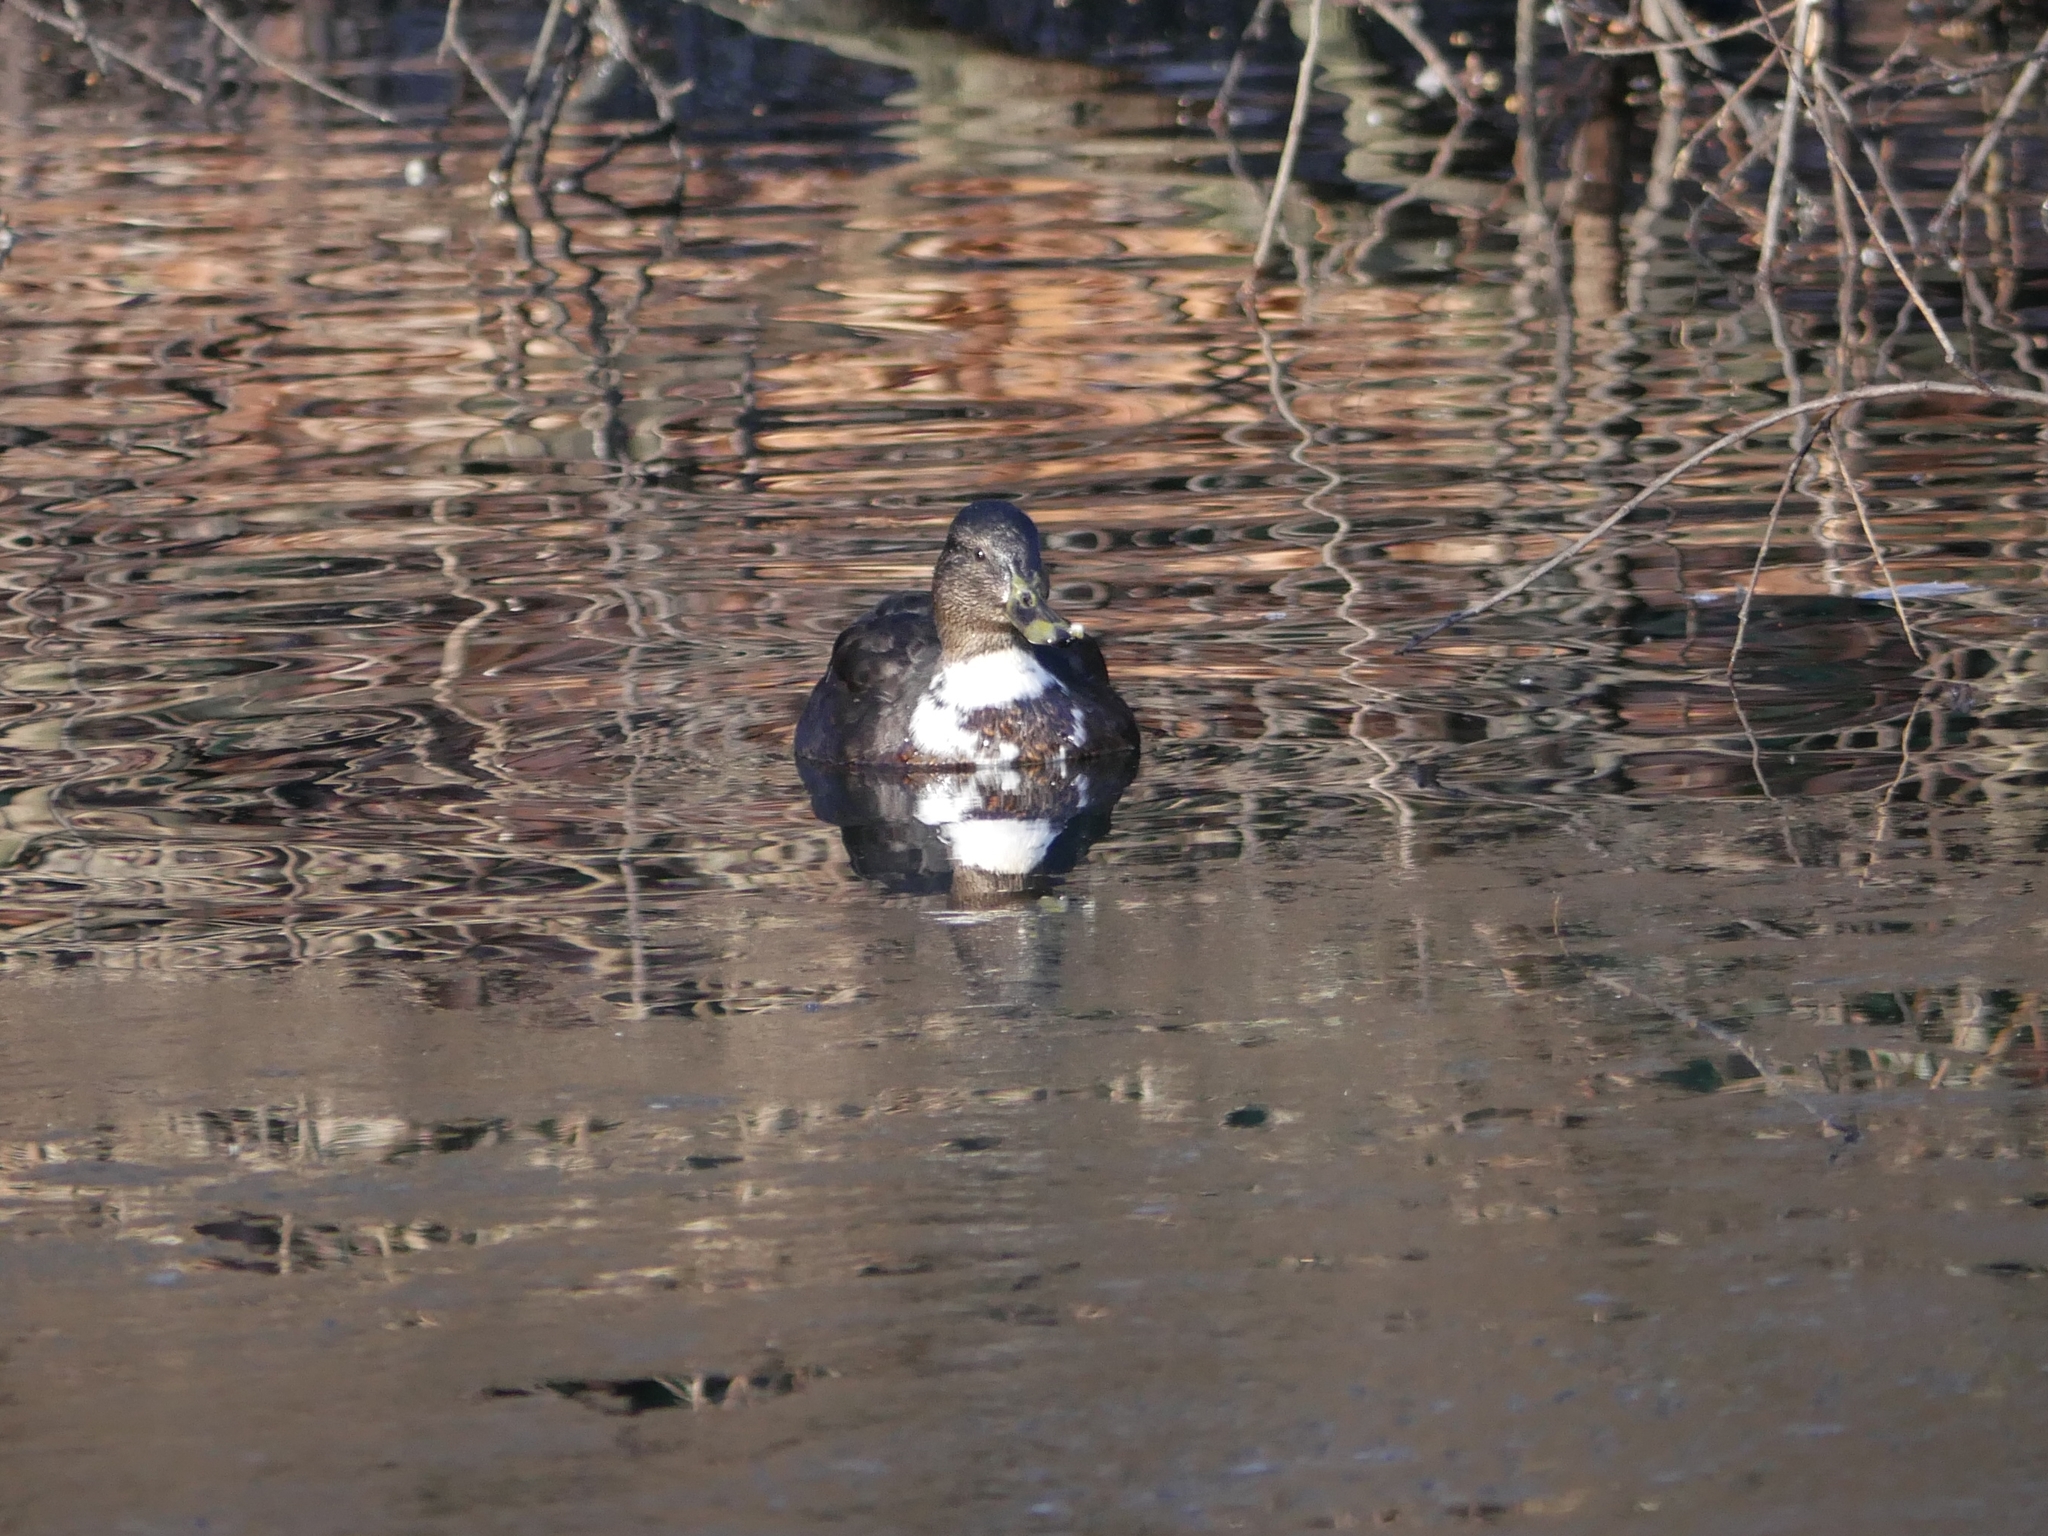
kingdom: Animalia
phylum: Chordata
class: Aves
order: Anseriformes
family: Anatidae
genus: Anas
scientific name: Anas platyrhynchos
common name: Mallard
